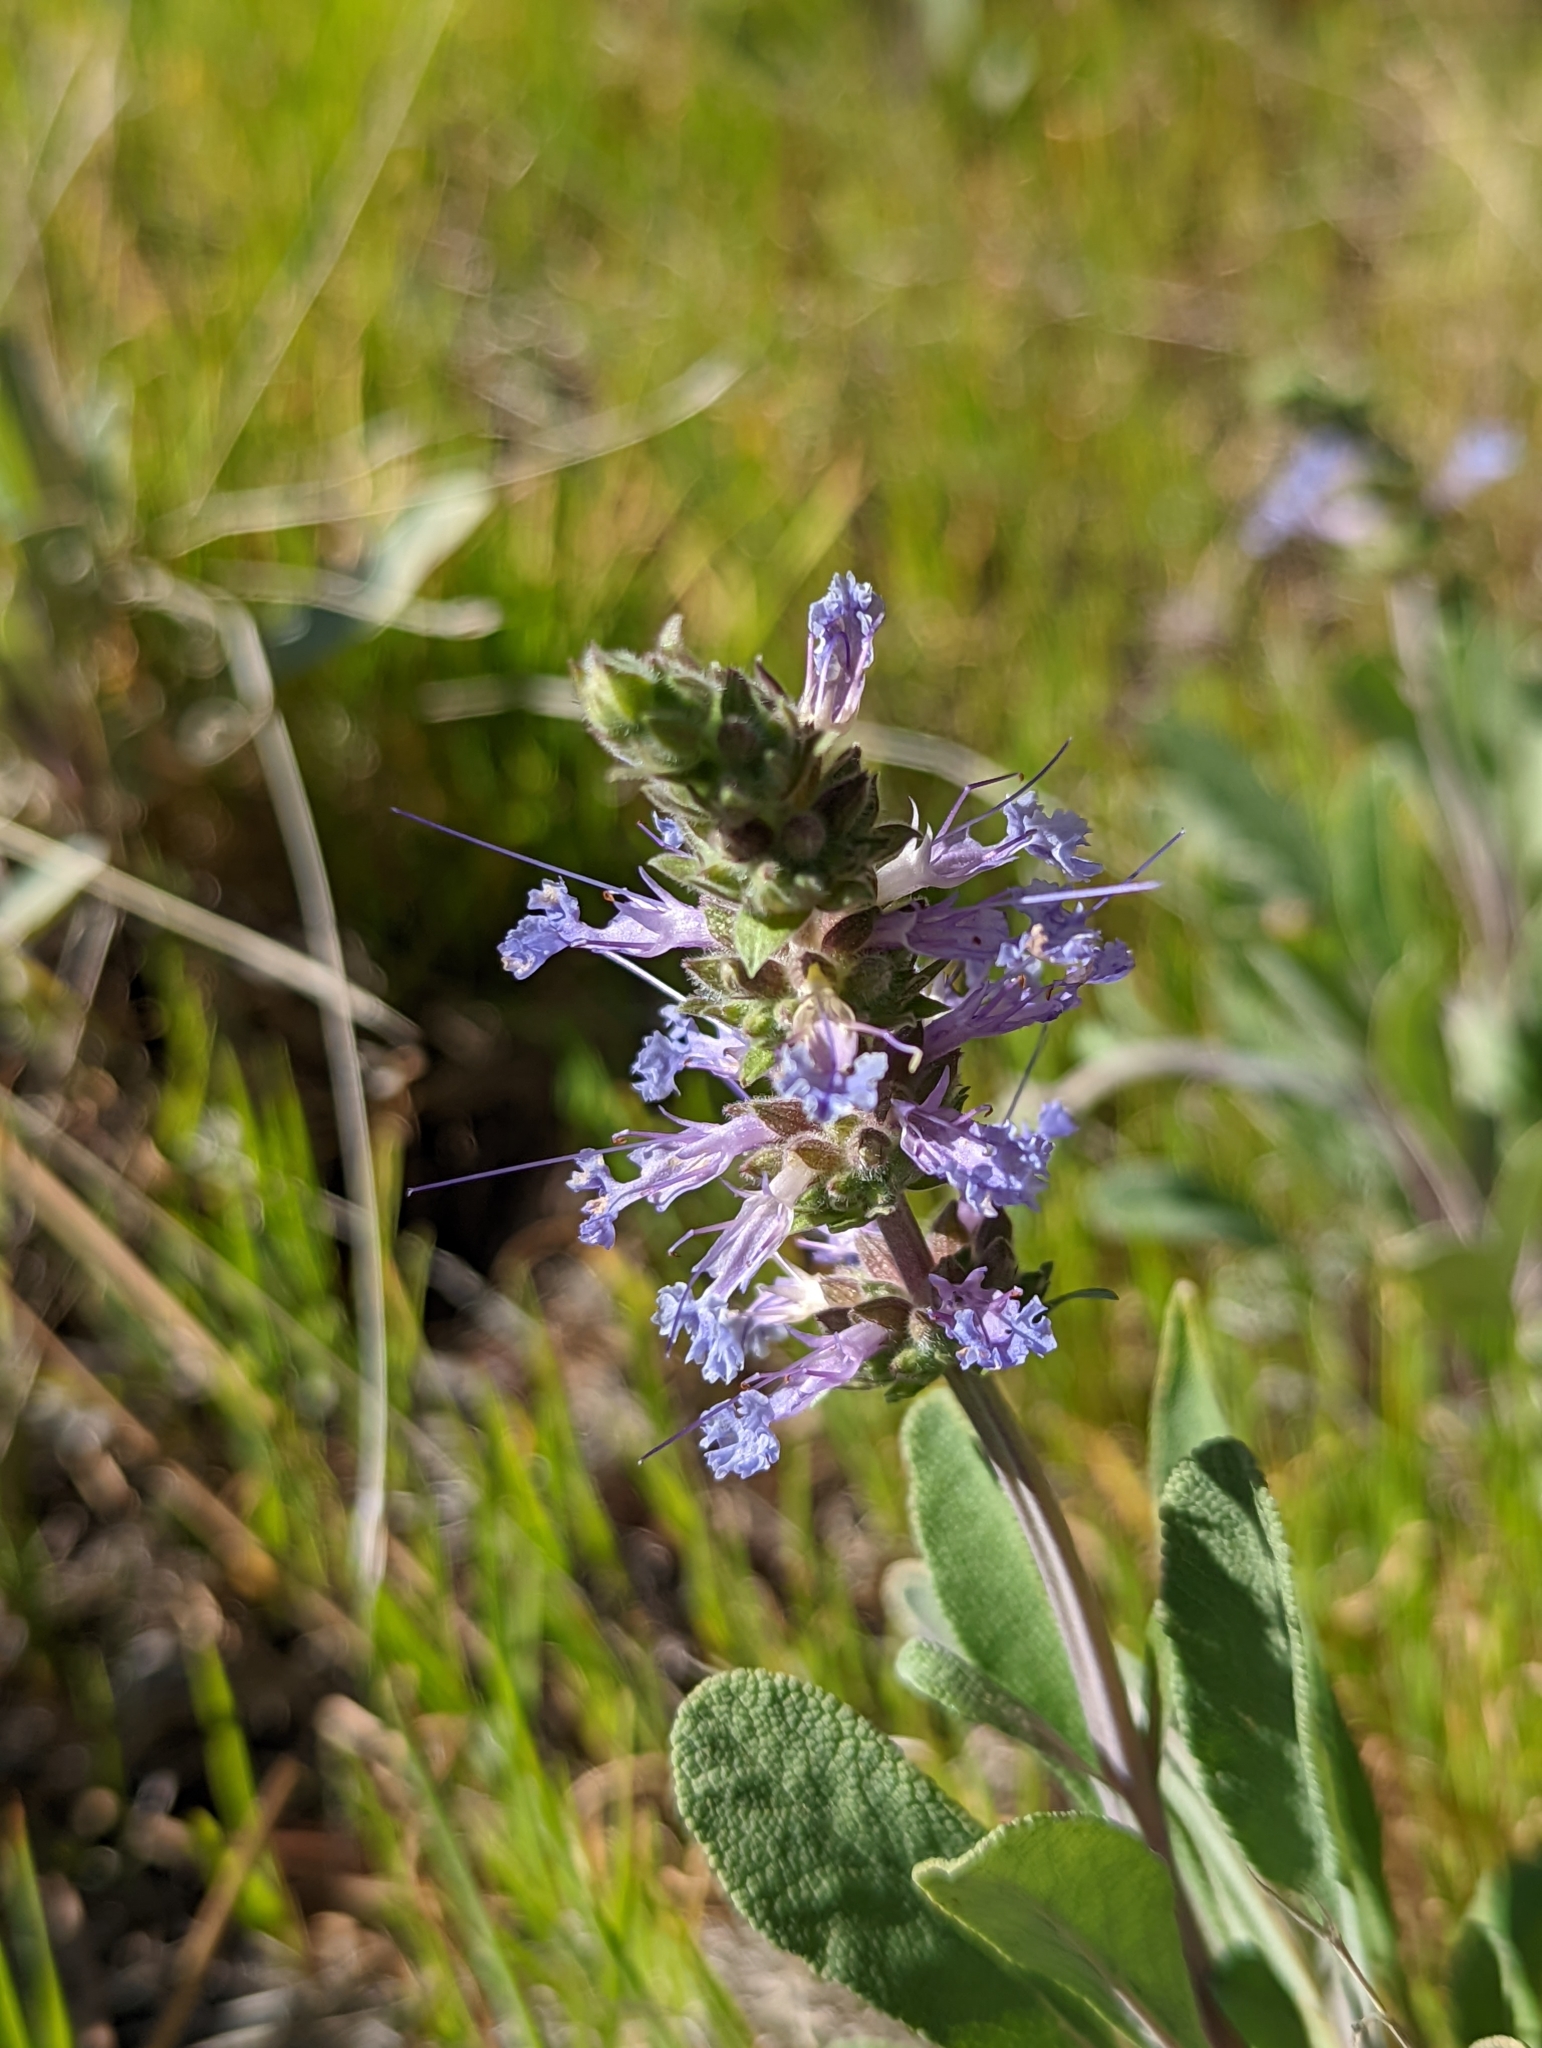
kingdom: Plantae
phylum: Tracheophyta
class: Magnoliopsida
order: Lamiales
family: Lamiaceae
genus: Salvia
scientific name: Salvia sonomensis
